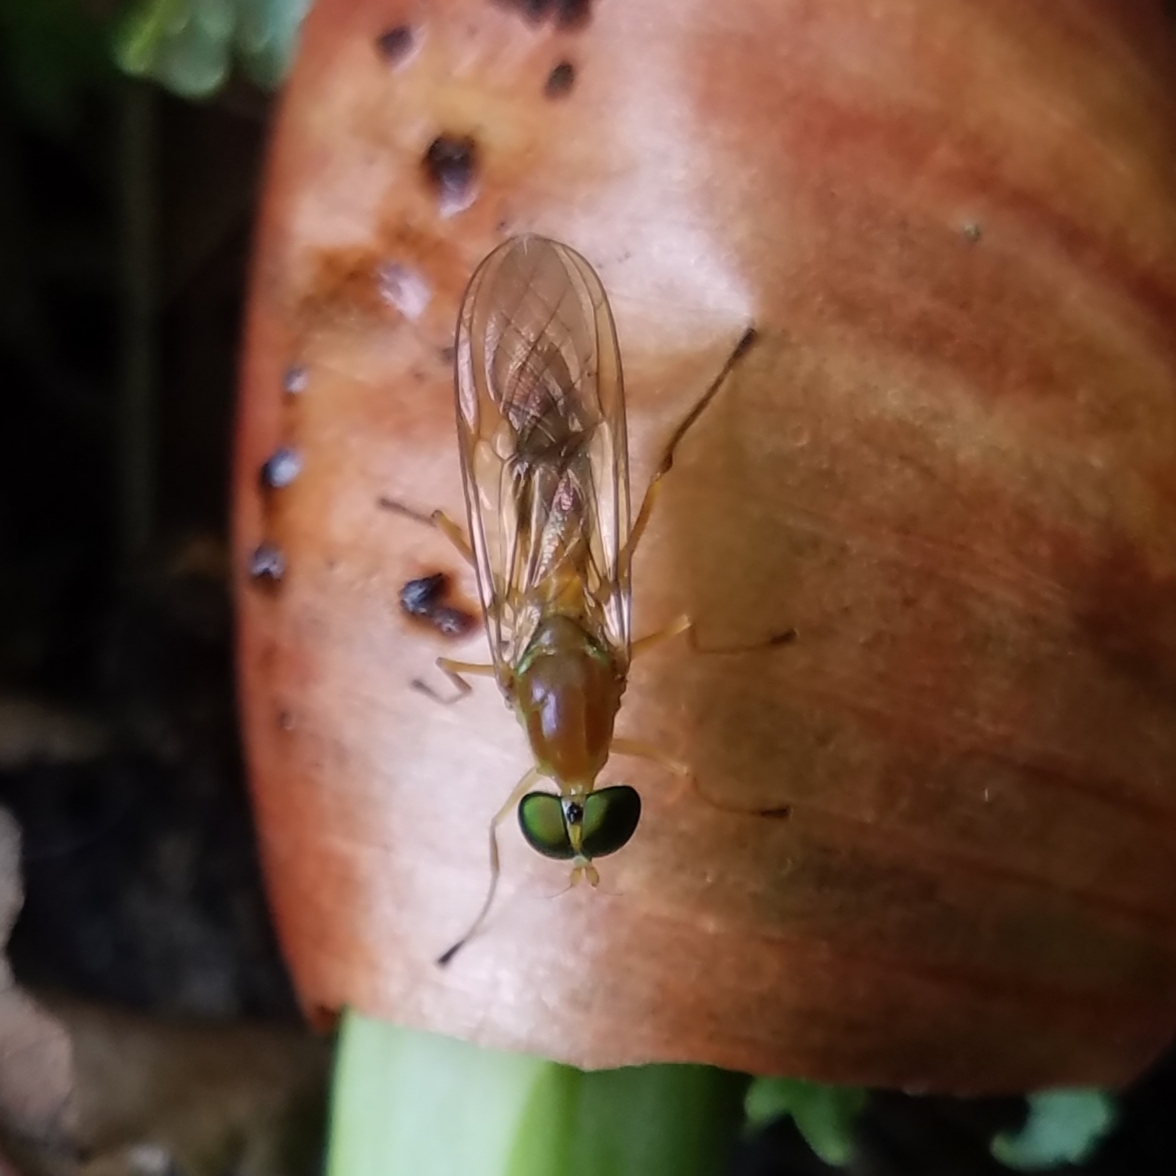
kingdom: Animalia
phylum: Arthropoda
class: Insecta
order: Diptera
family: Stratiomyidae
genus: Ptecticus
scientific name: Ptecticus trivittatus
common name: Compost fly
